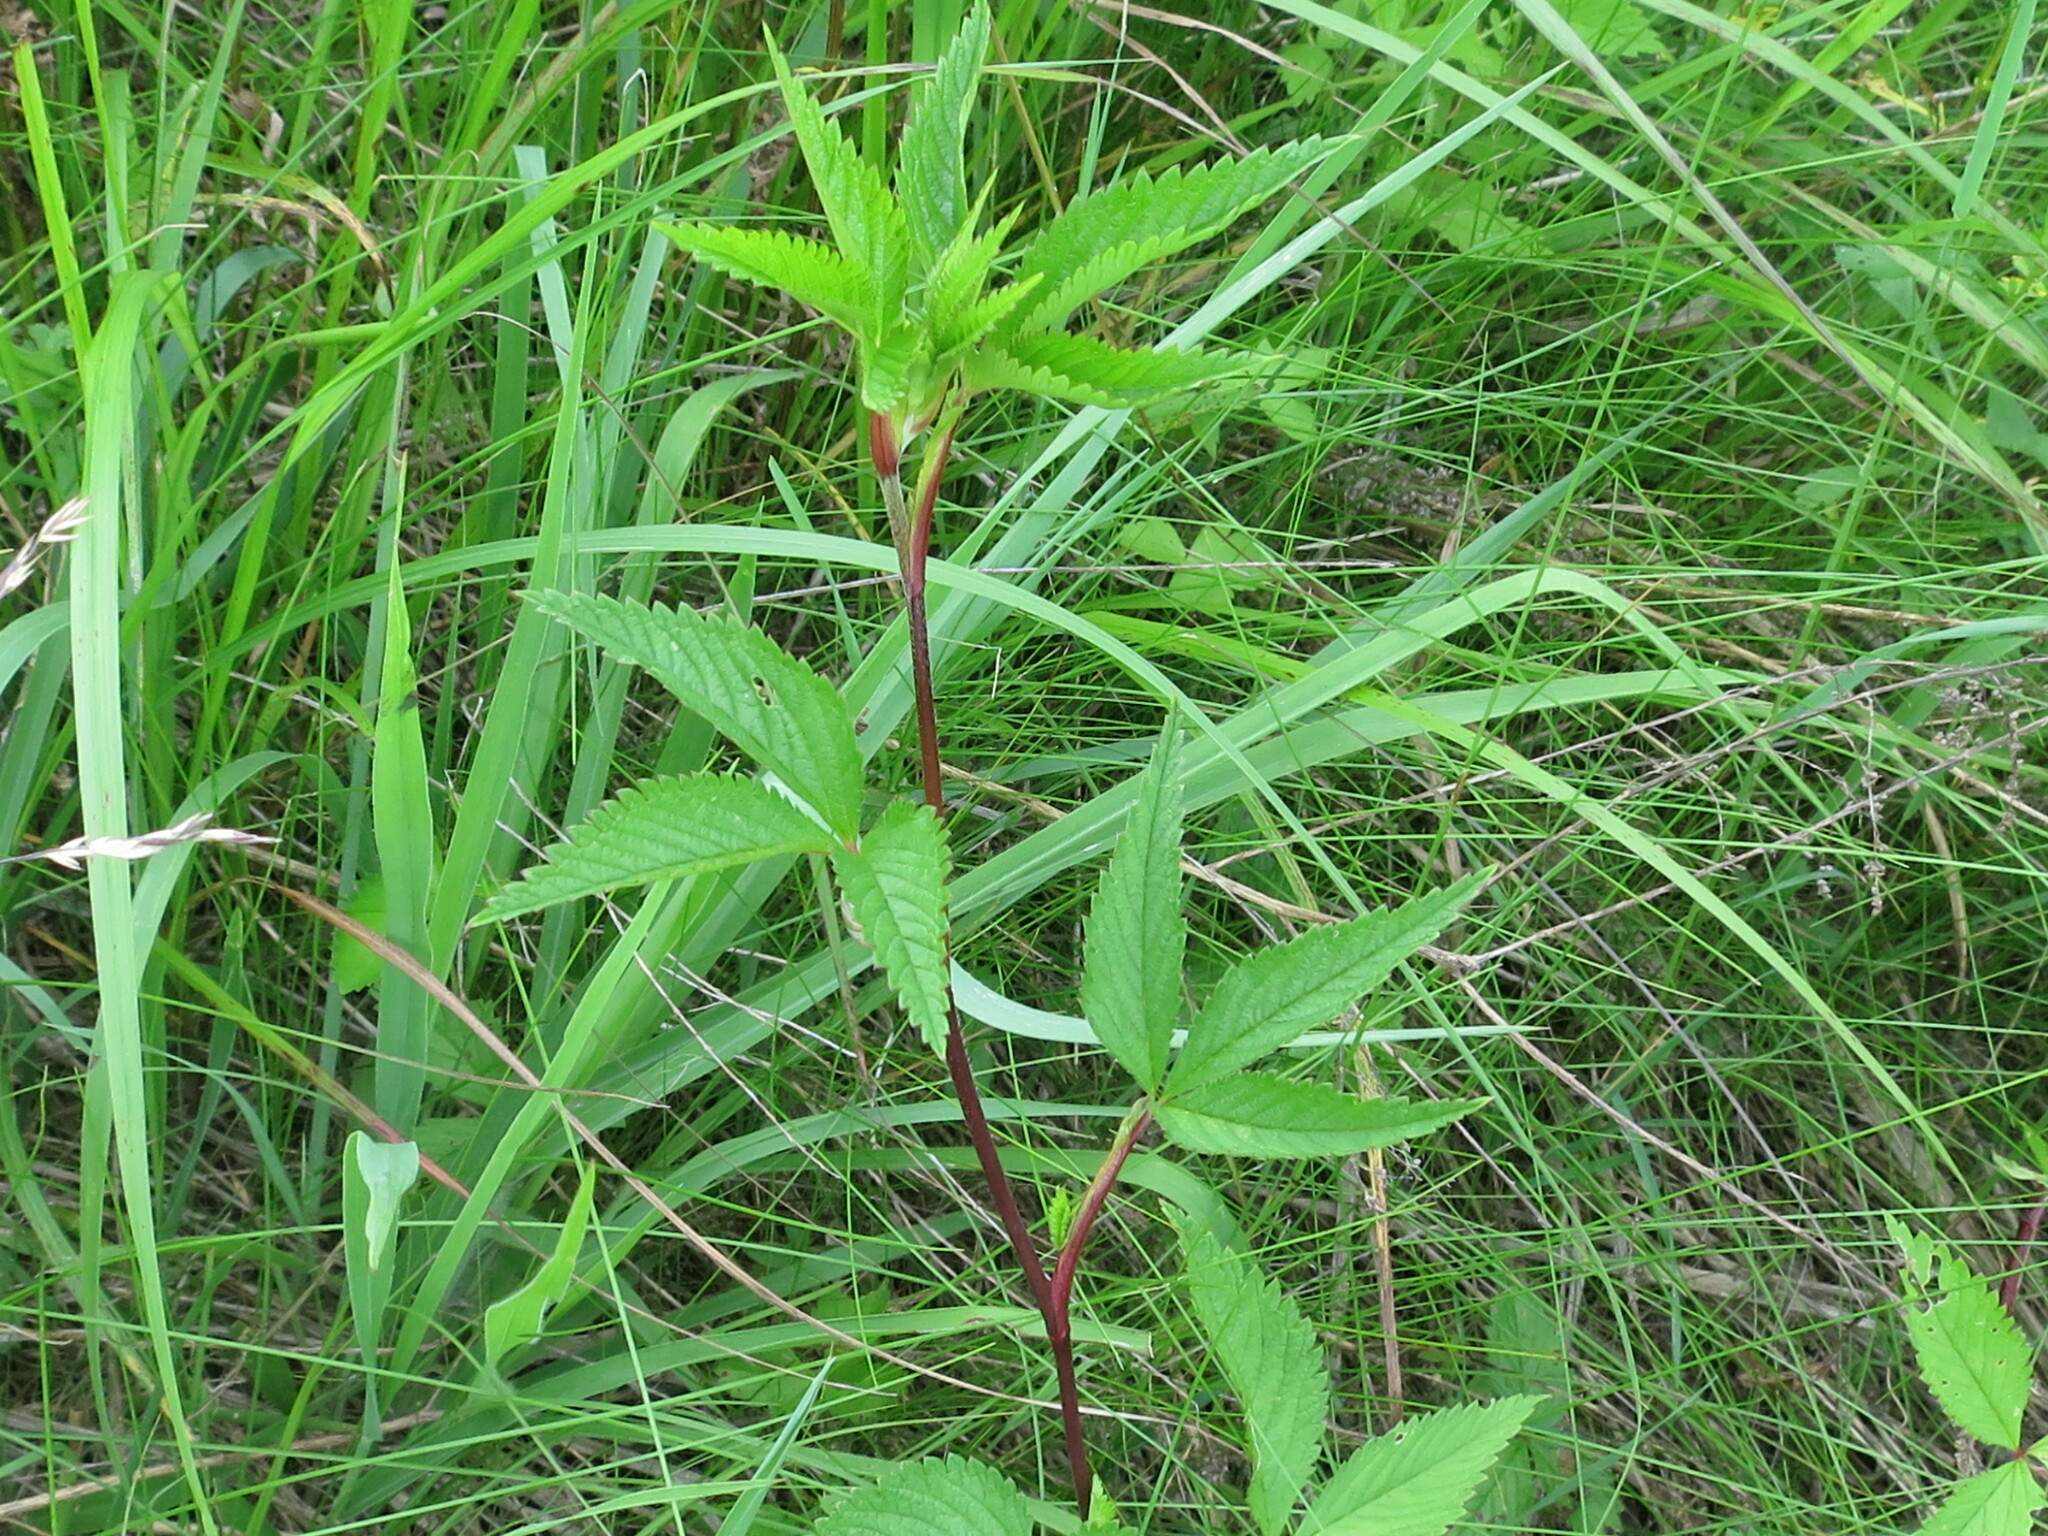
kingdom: Plantae
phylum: Tracheophyta
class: Magnoliopsida
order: Rosales
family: Rosaceae
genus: Potentilla
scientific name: Potentilla cryptotaeniae
